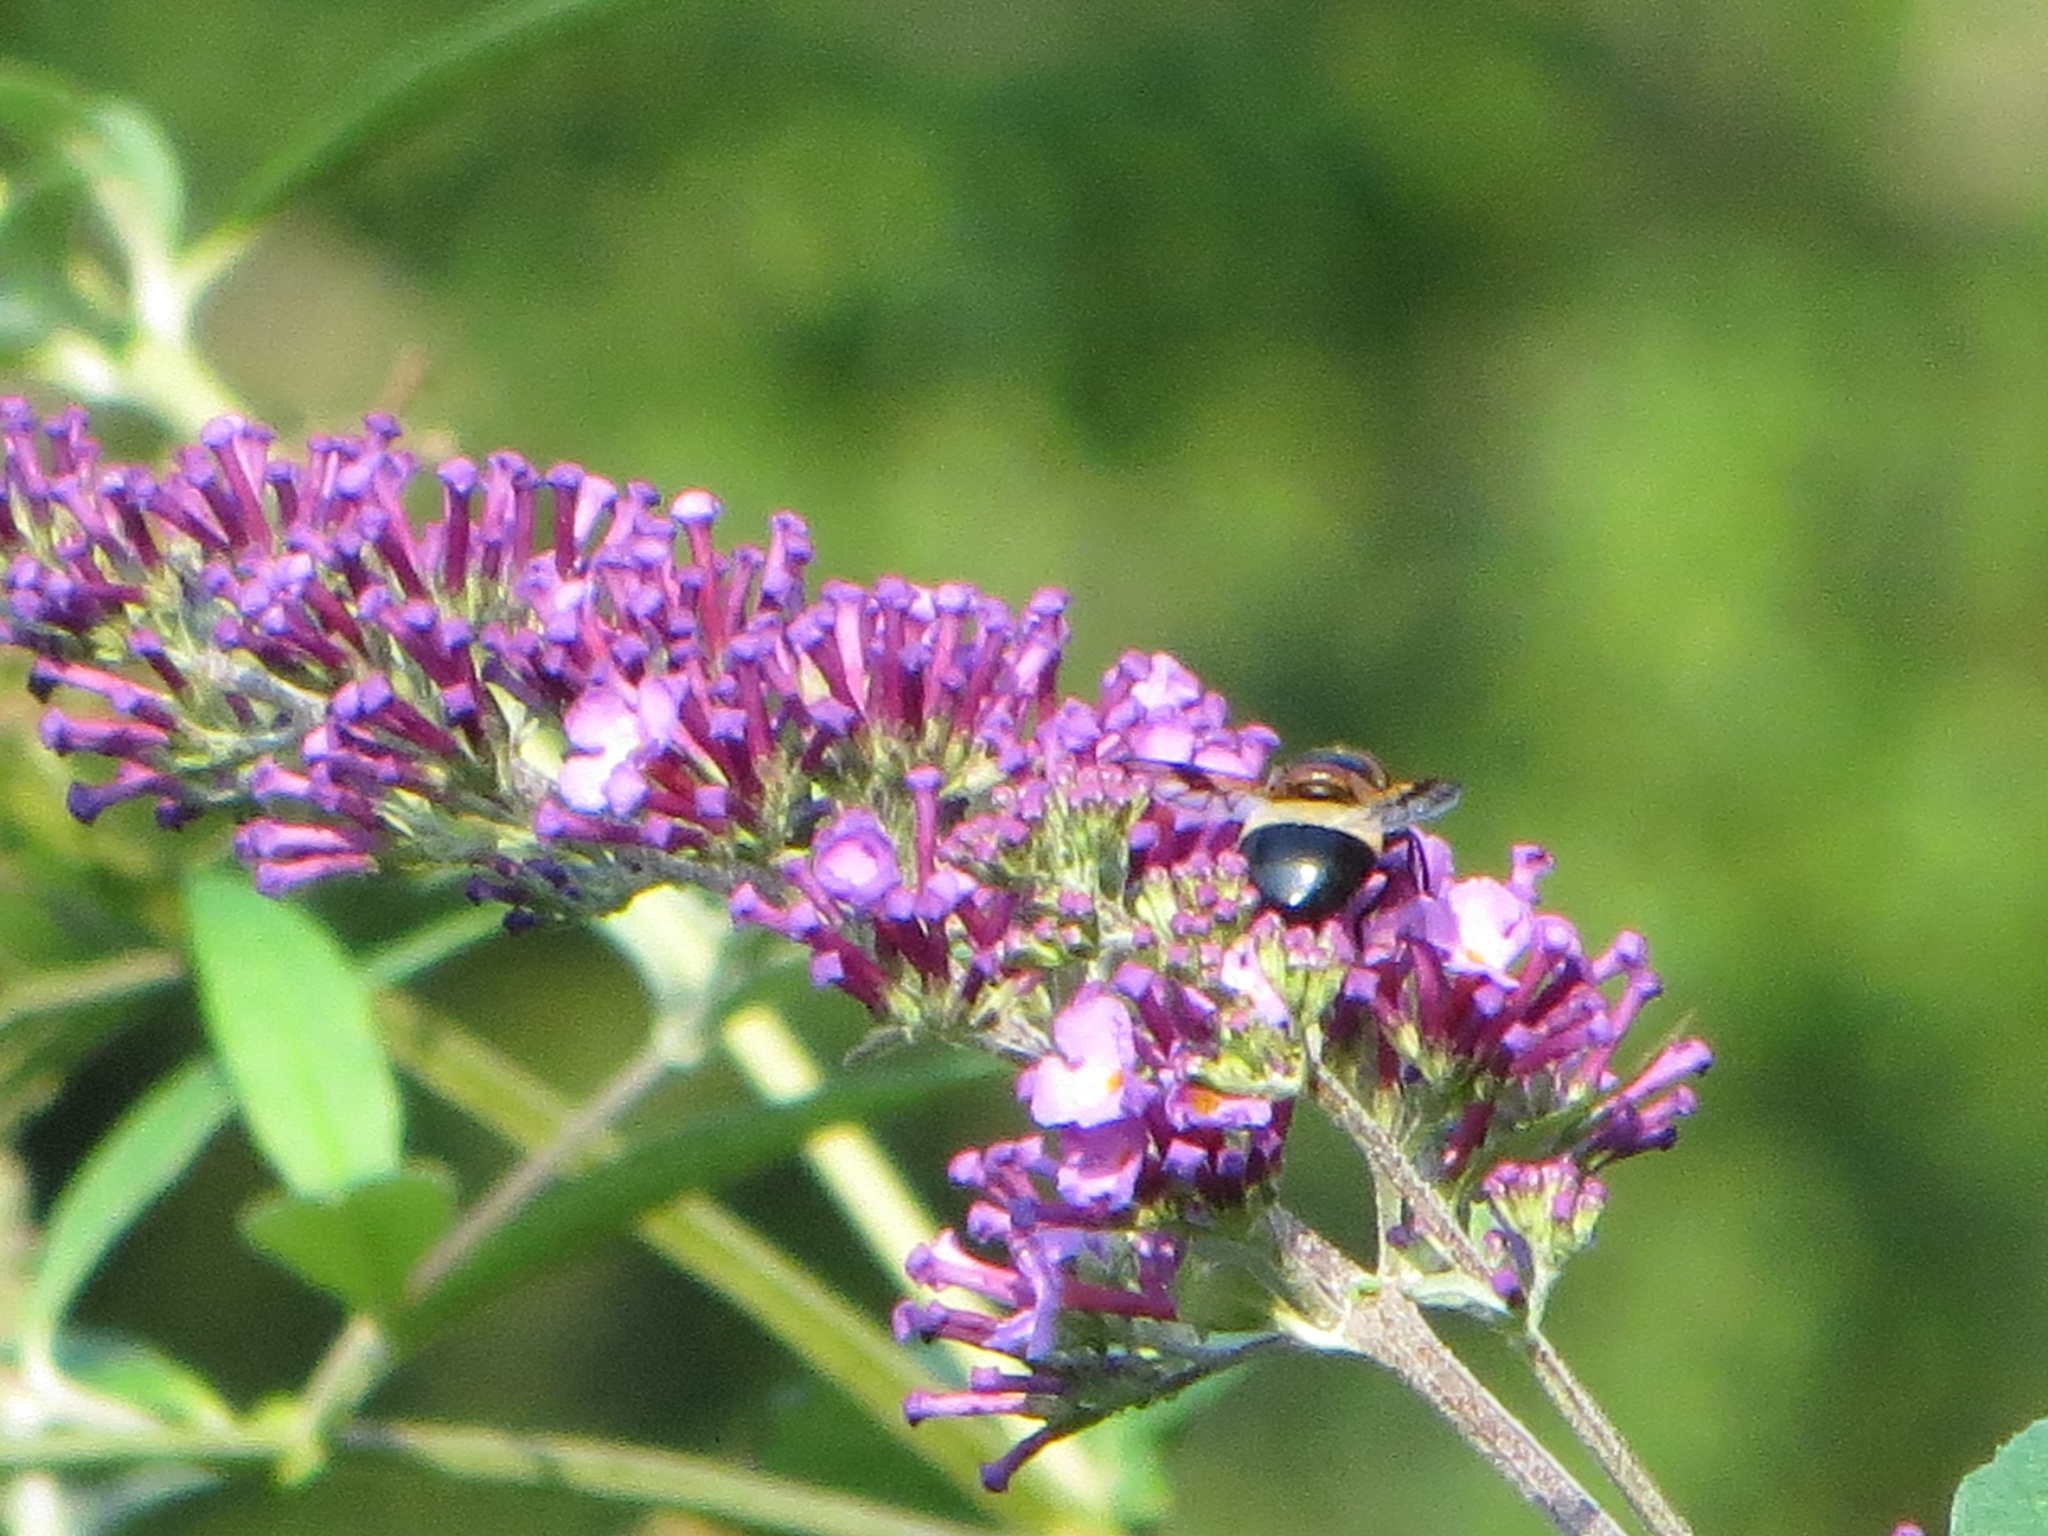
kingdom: Animalia
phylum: Arthropoda
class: Insecta
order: Diptera
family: Syrphidae
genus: Volucella
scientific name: Volucella pellucens
